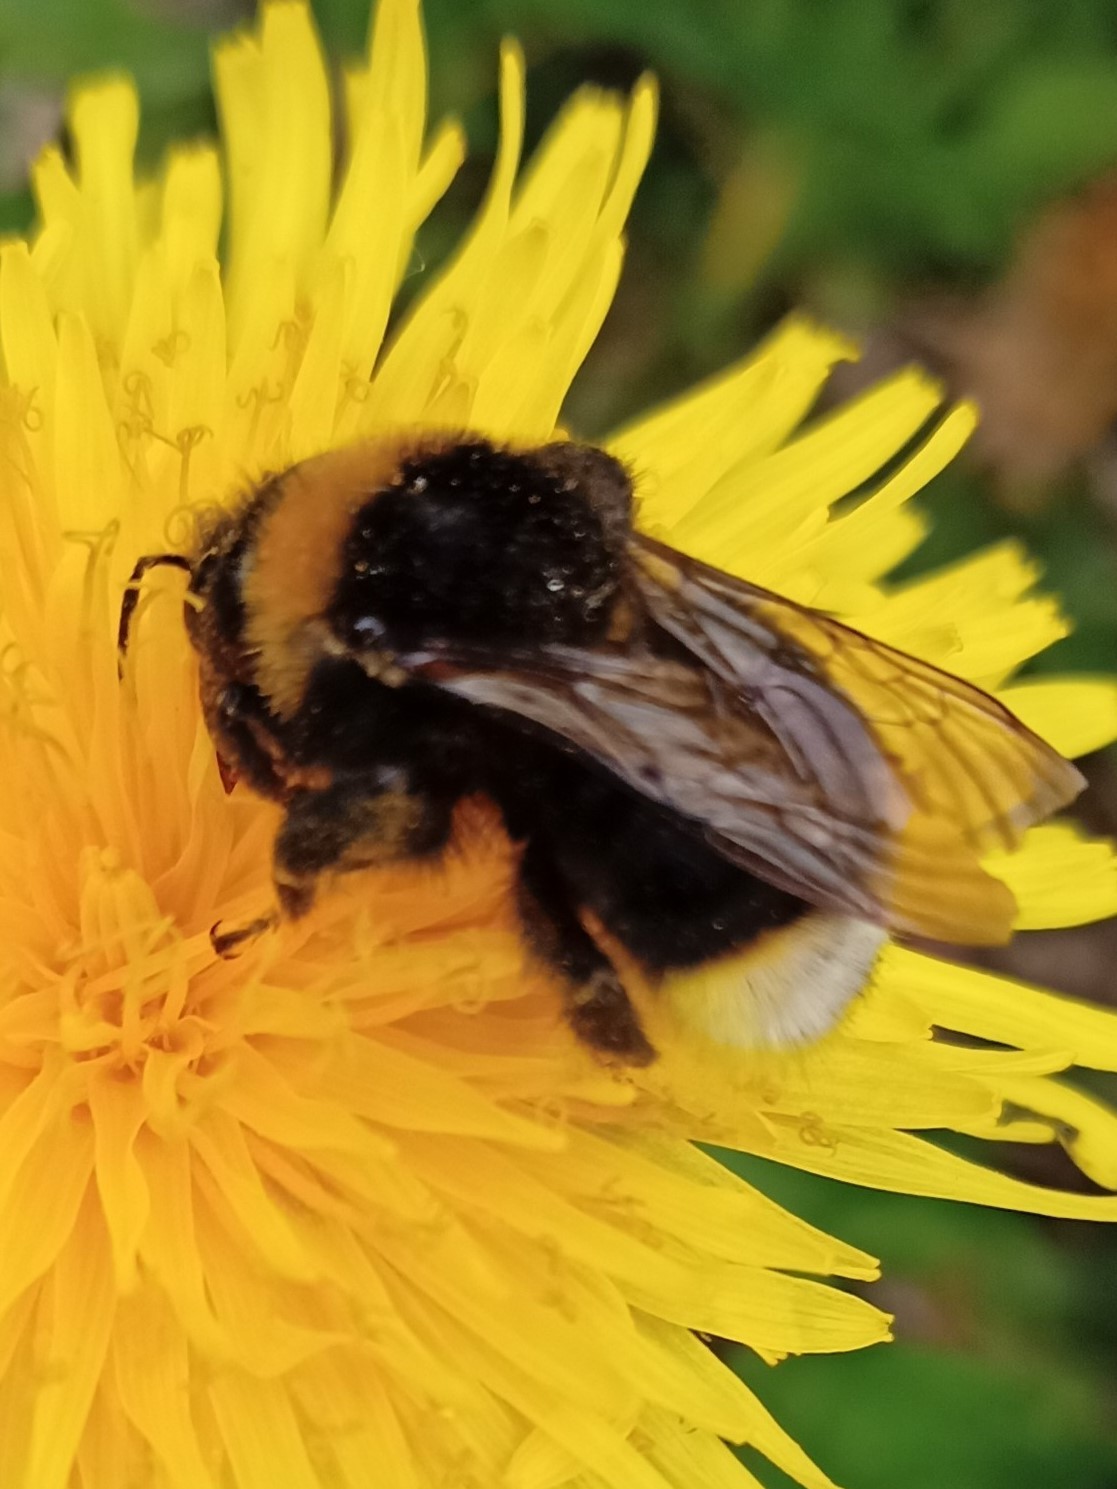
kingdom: Animalia
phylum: Arthropoda
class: Insecta
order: Hymenoptera
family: Apidae
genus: Bombus
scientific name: Bombus vestalis
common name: Vestal cuckoo bee
